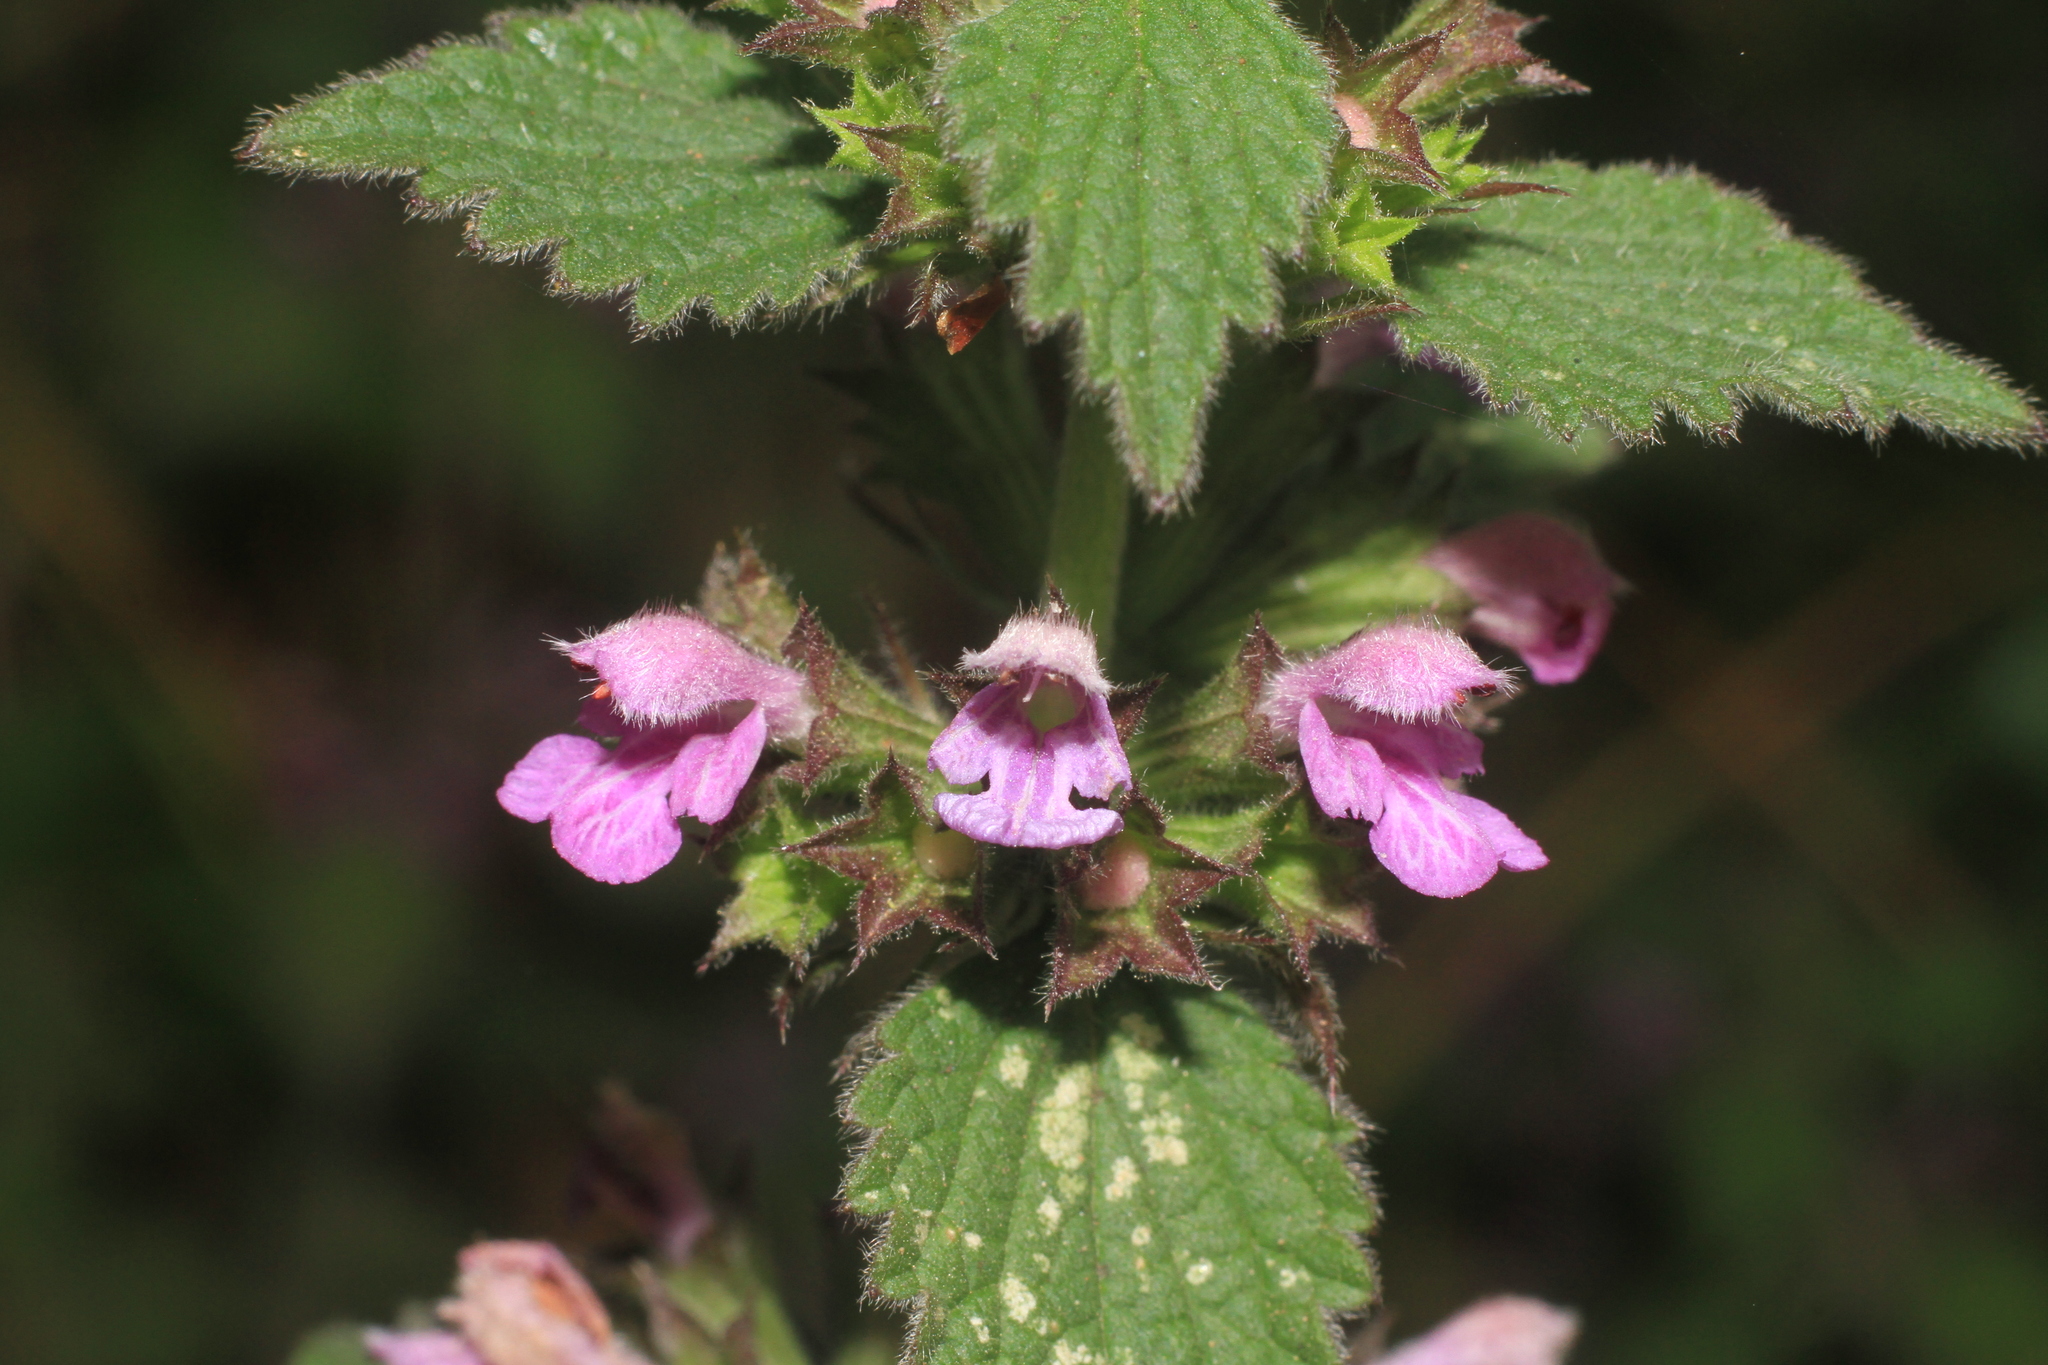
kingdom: Plantae
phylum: Tracheophyta
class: Magnoliopsida
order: Lamiales
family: Lamiaceae
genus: Ballota
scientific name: Ballota nigra
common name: Black horehound
